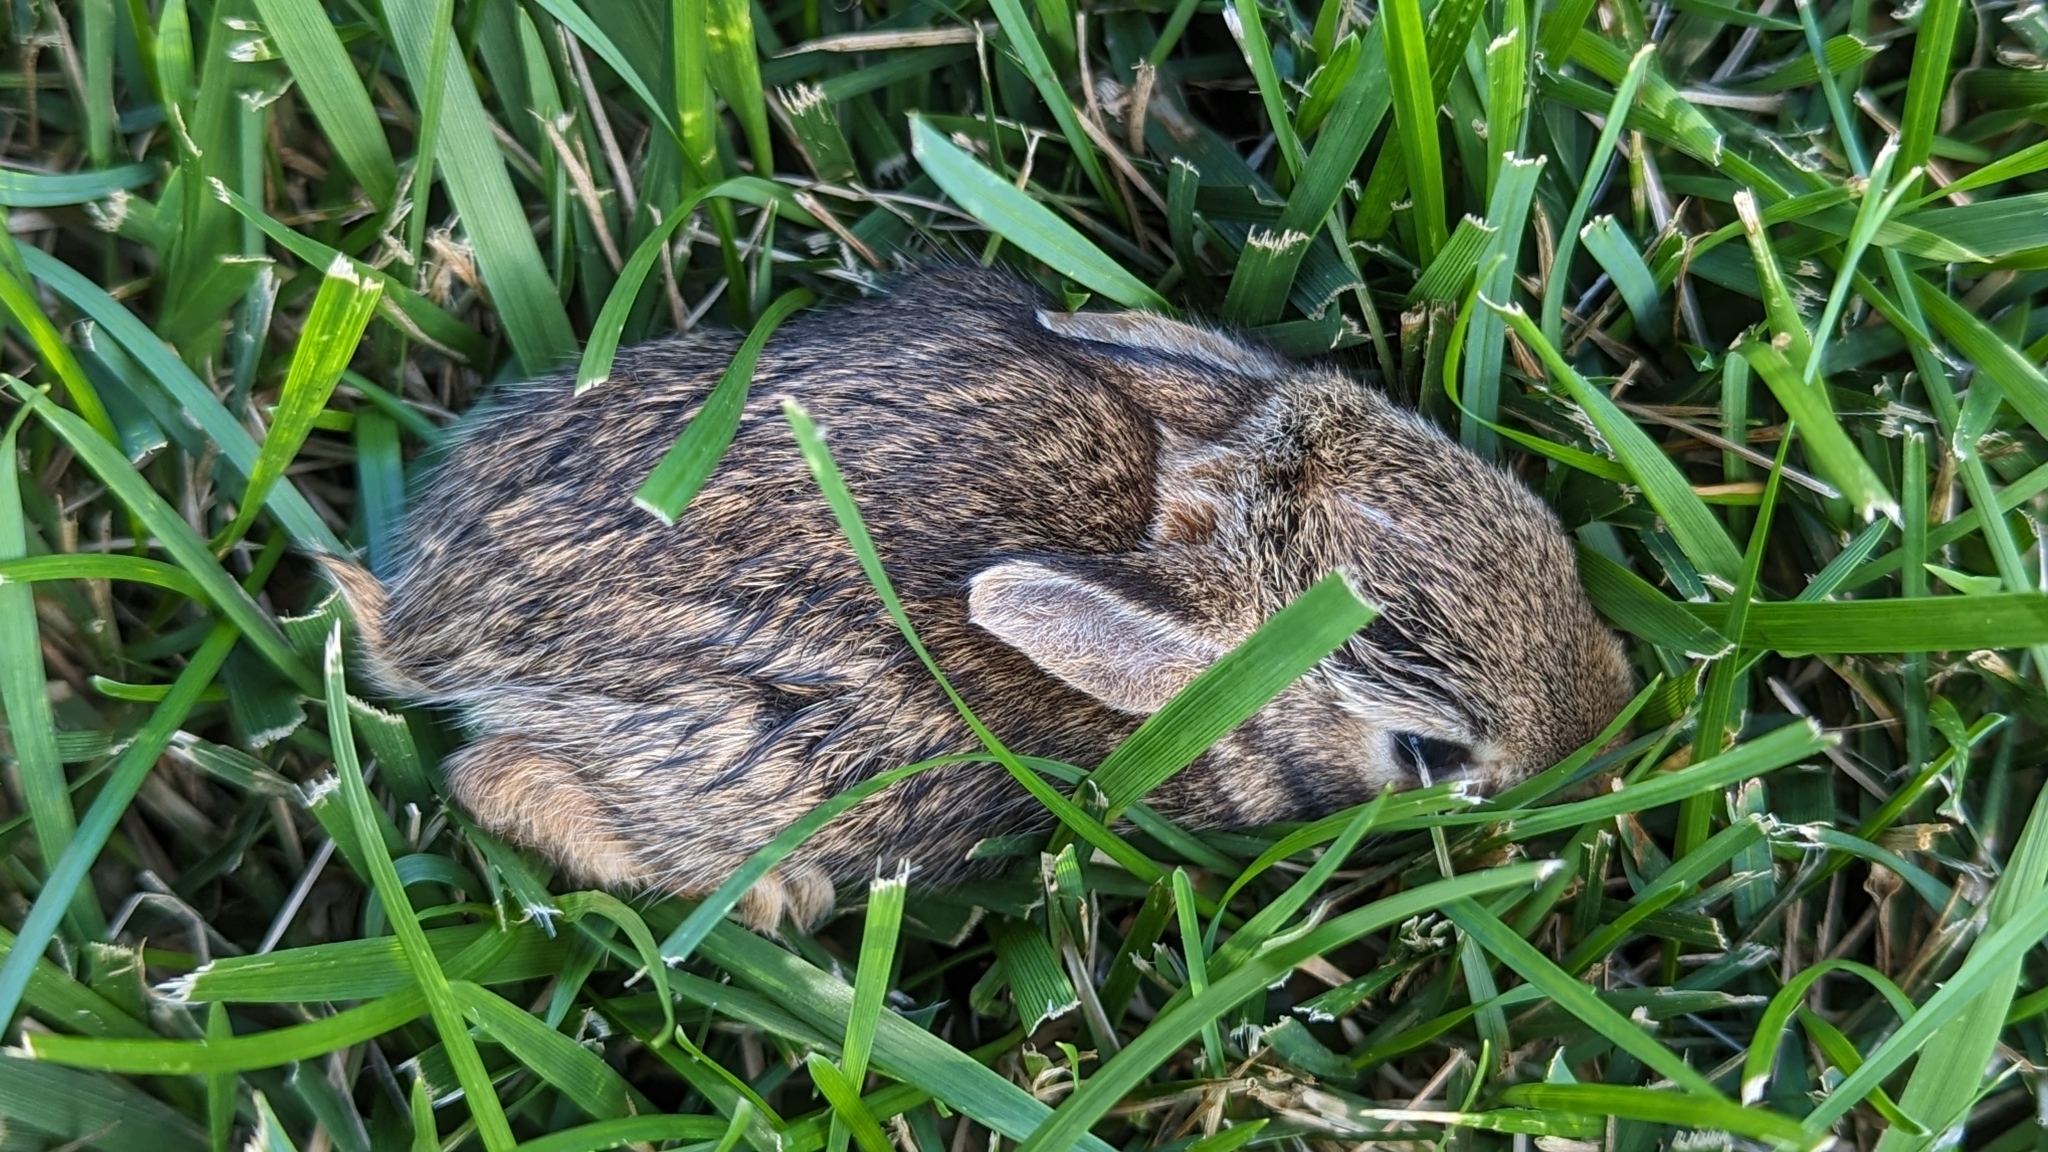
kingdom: Animalia
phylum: Chordata
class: Mammalia
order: Lagomorpha
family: Leporidae
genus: Sylvilagus
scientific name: Sylvilagus floridanus
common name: Eastern cottontail
